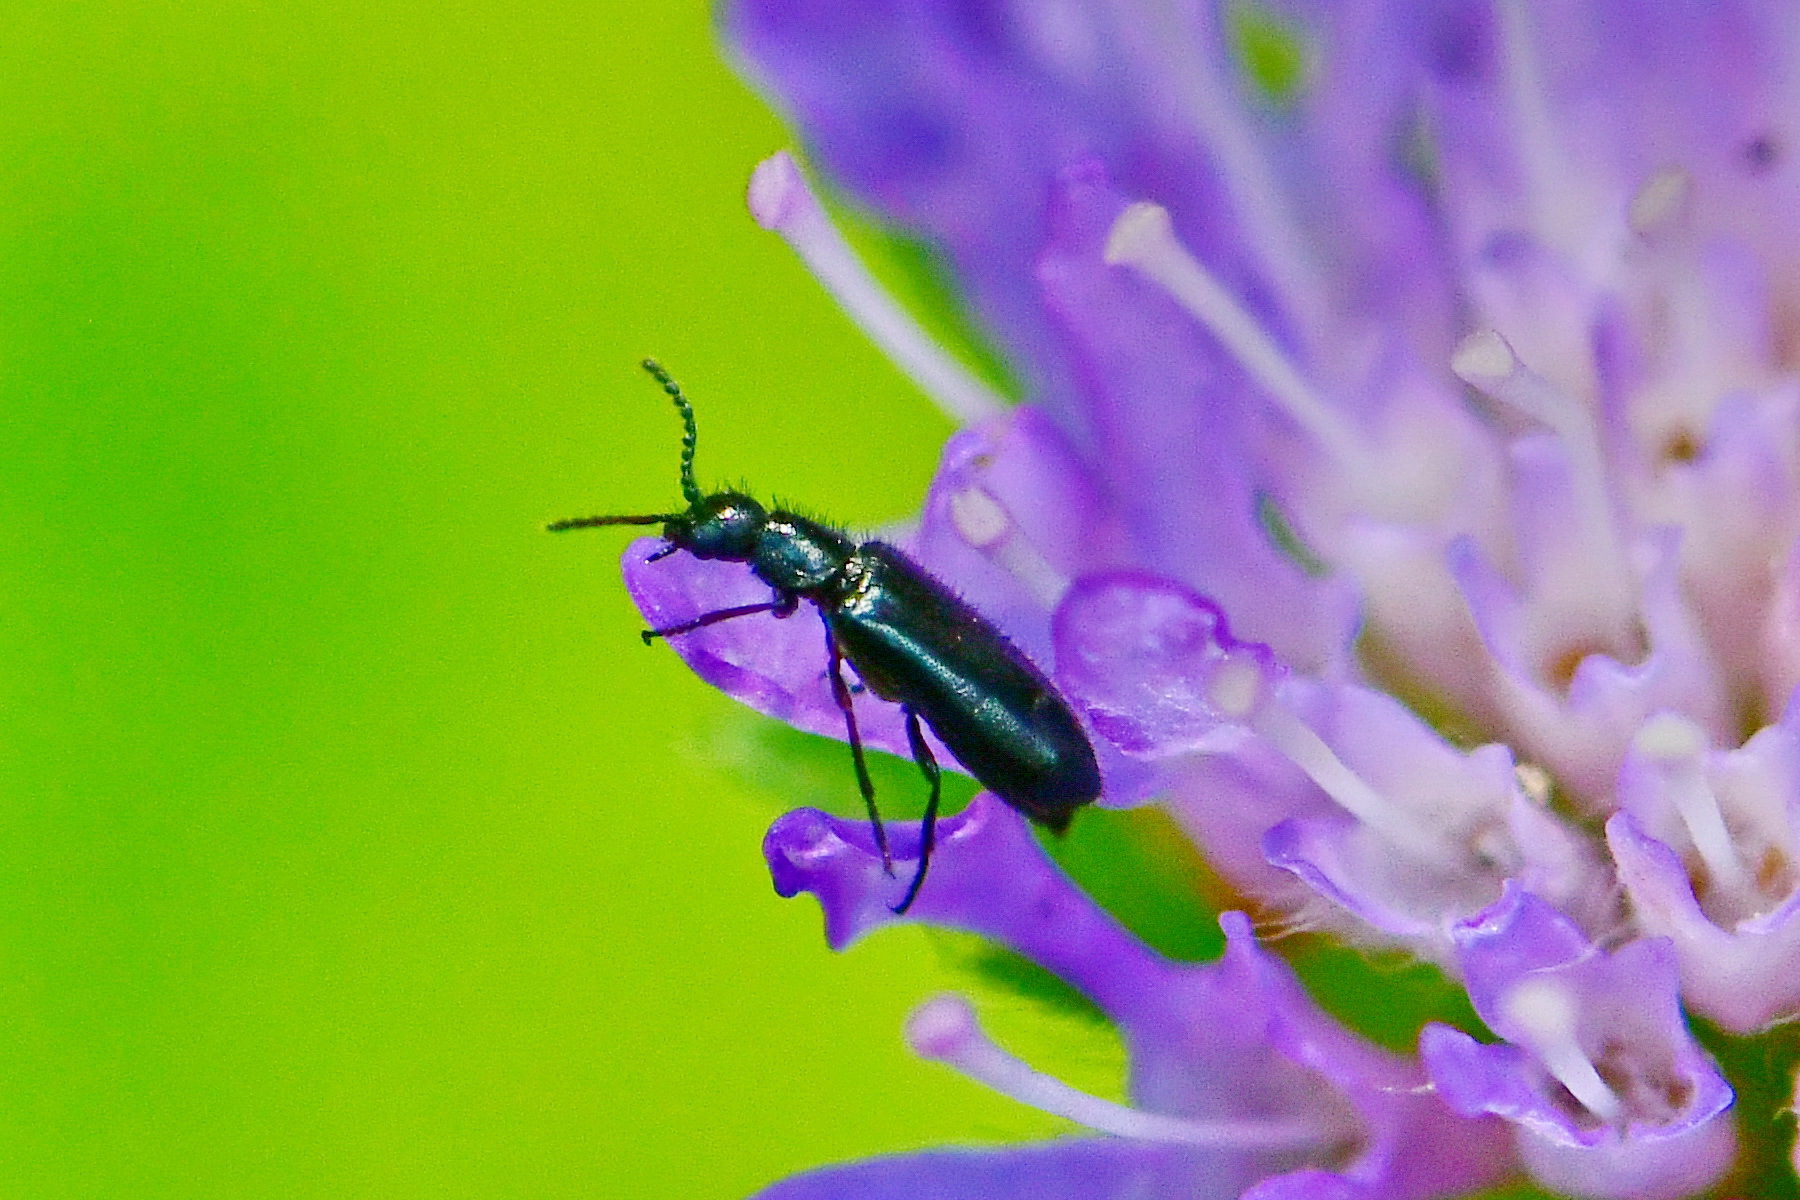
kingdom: Animalia
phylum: Arthropoda
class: Insecta
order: Coleoptera
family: Melyridae
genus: Dasytes
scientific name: Dasytes caeruleus
